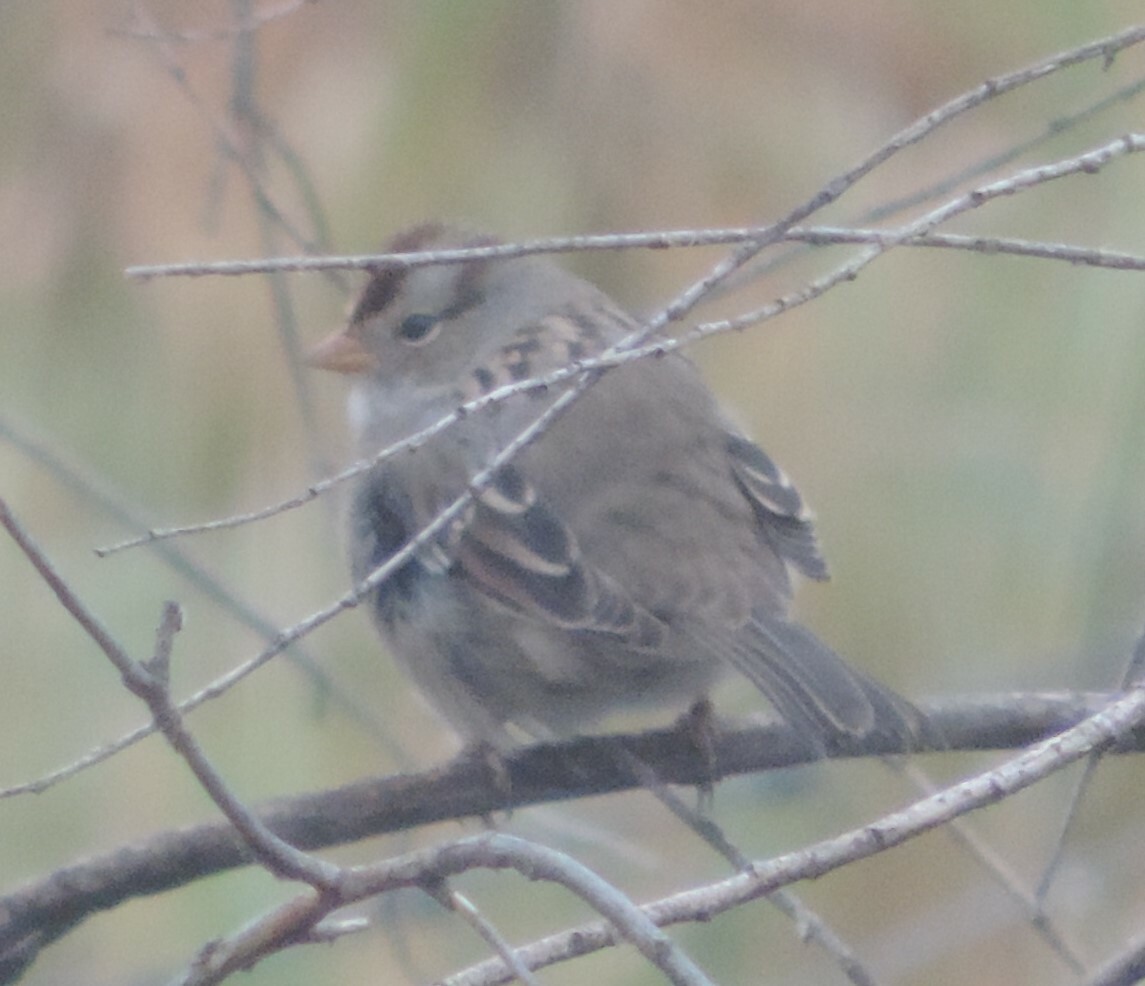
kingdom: Animalia
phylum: Chordata
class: Aves
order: Passeriformes
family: Passerellidae
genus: Zonotrichia
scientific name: Zonotrichia leucophrys
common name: White-crowned sparrow
